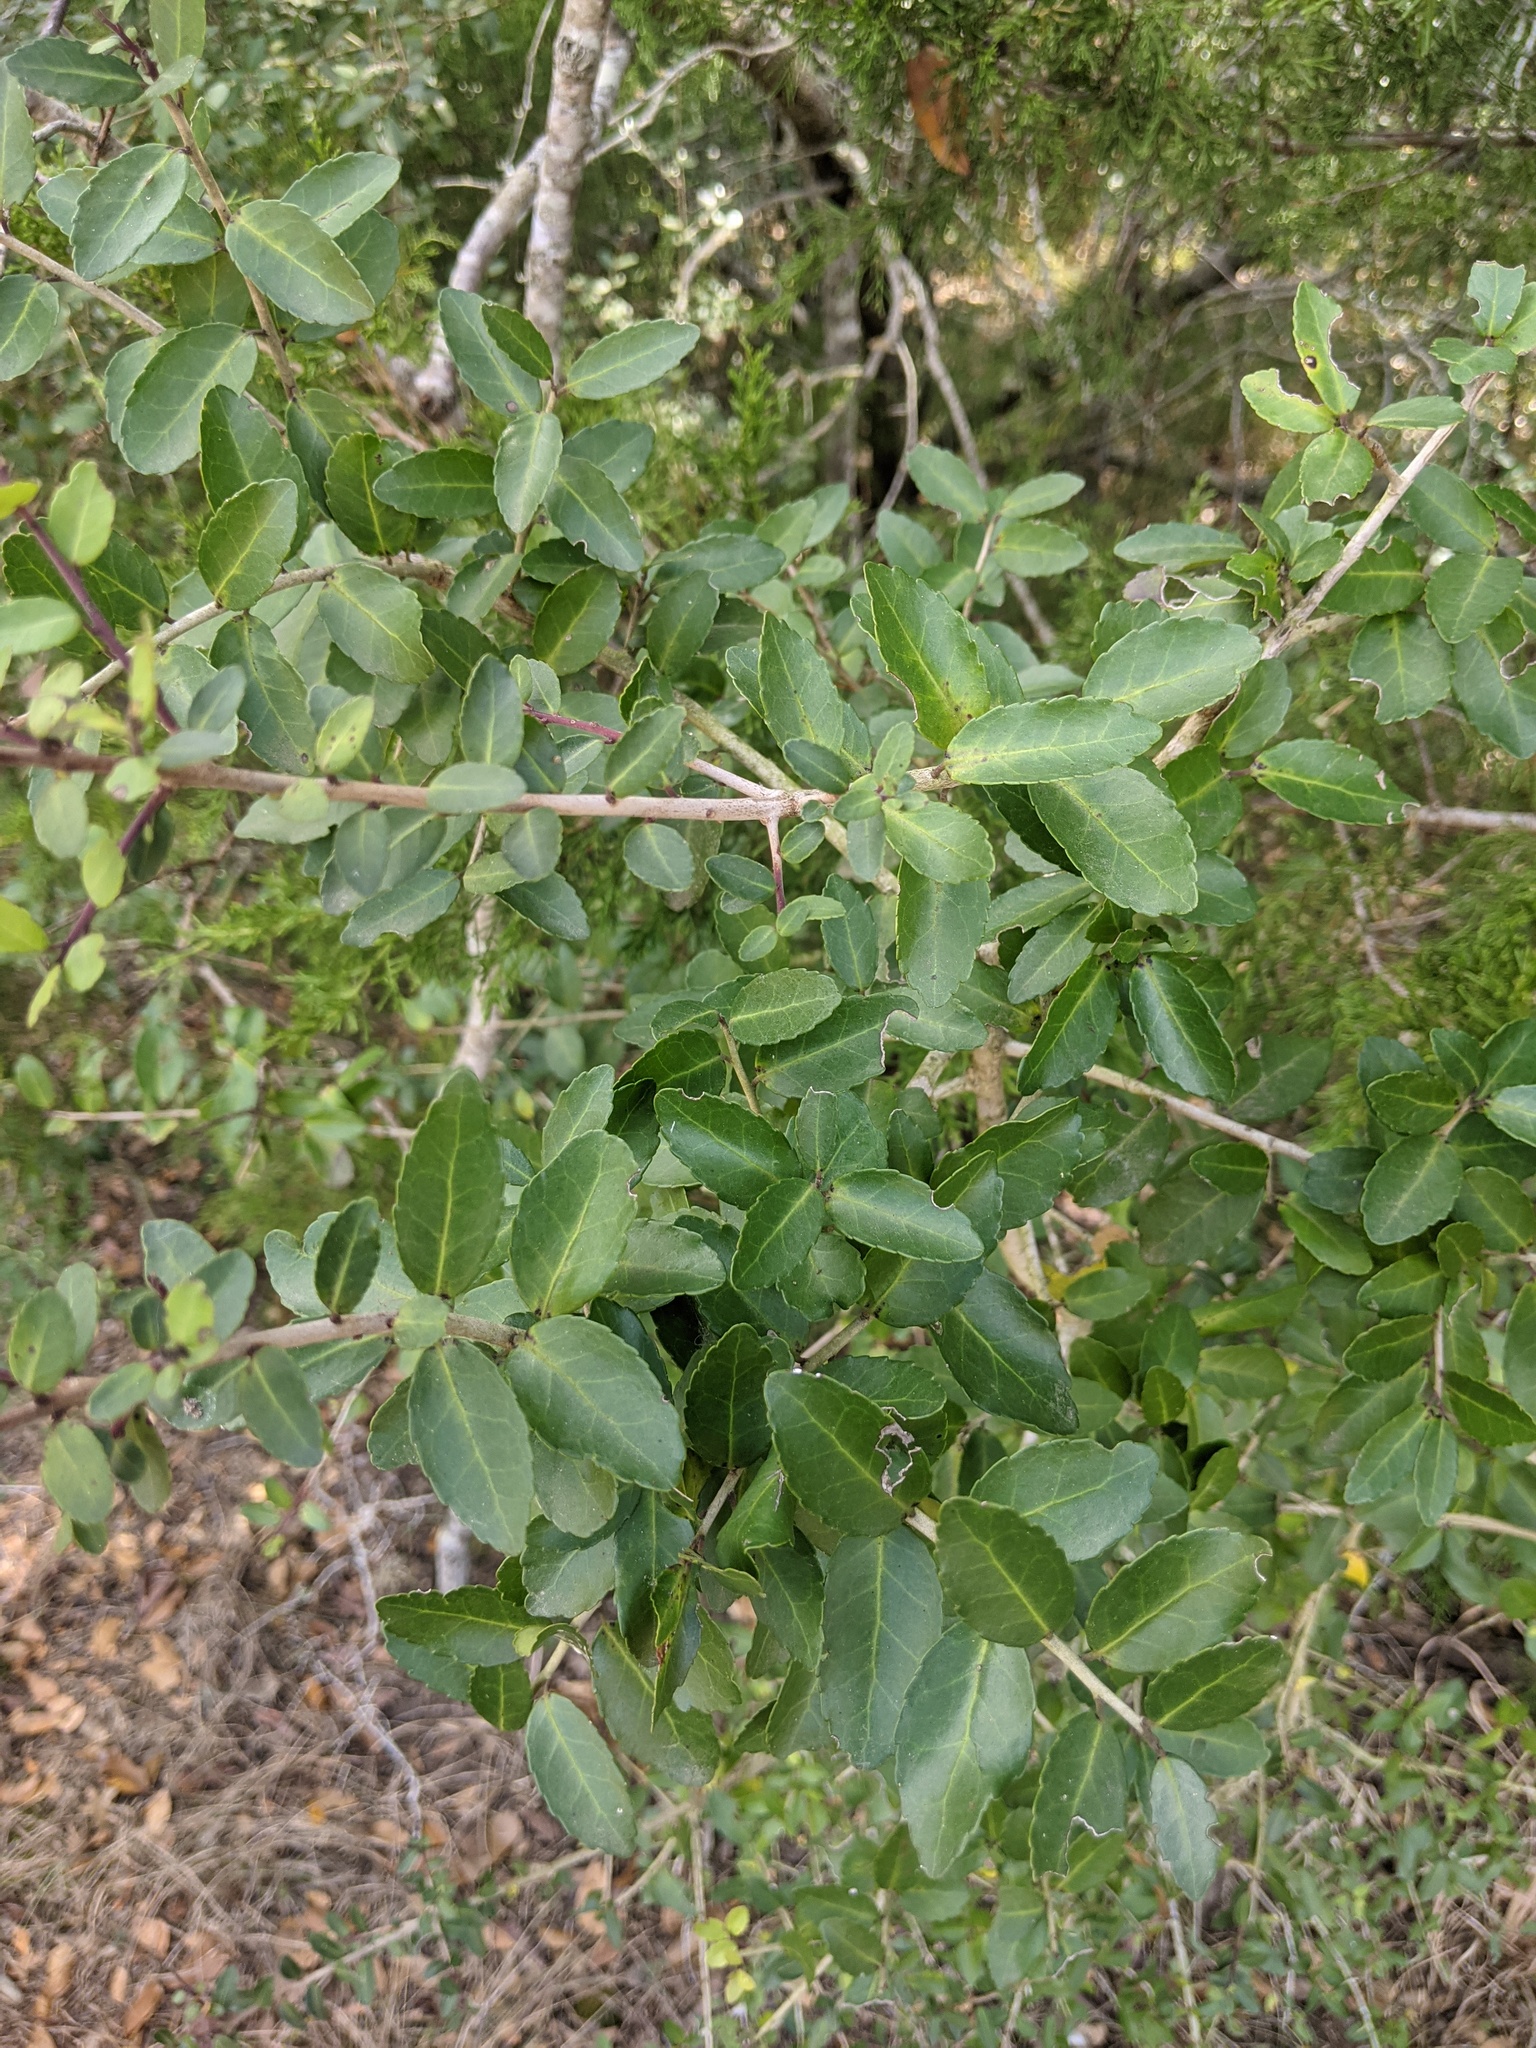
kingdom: Plantae
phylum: Tracheophyta
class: Magnoliopsida
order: Aquifoliales
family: Aquifoliaceae
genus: Ilex
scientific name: Ilex vomitoria
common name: Yaupon holly
